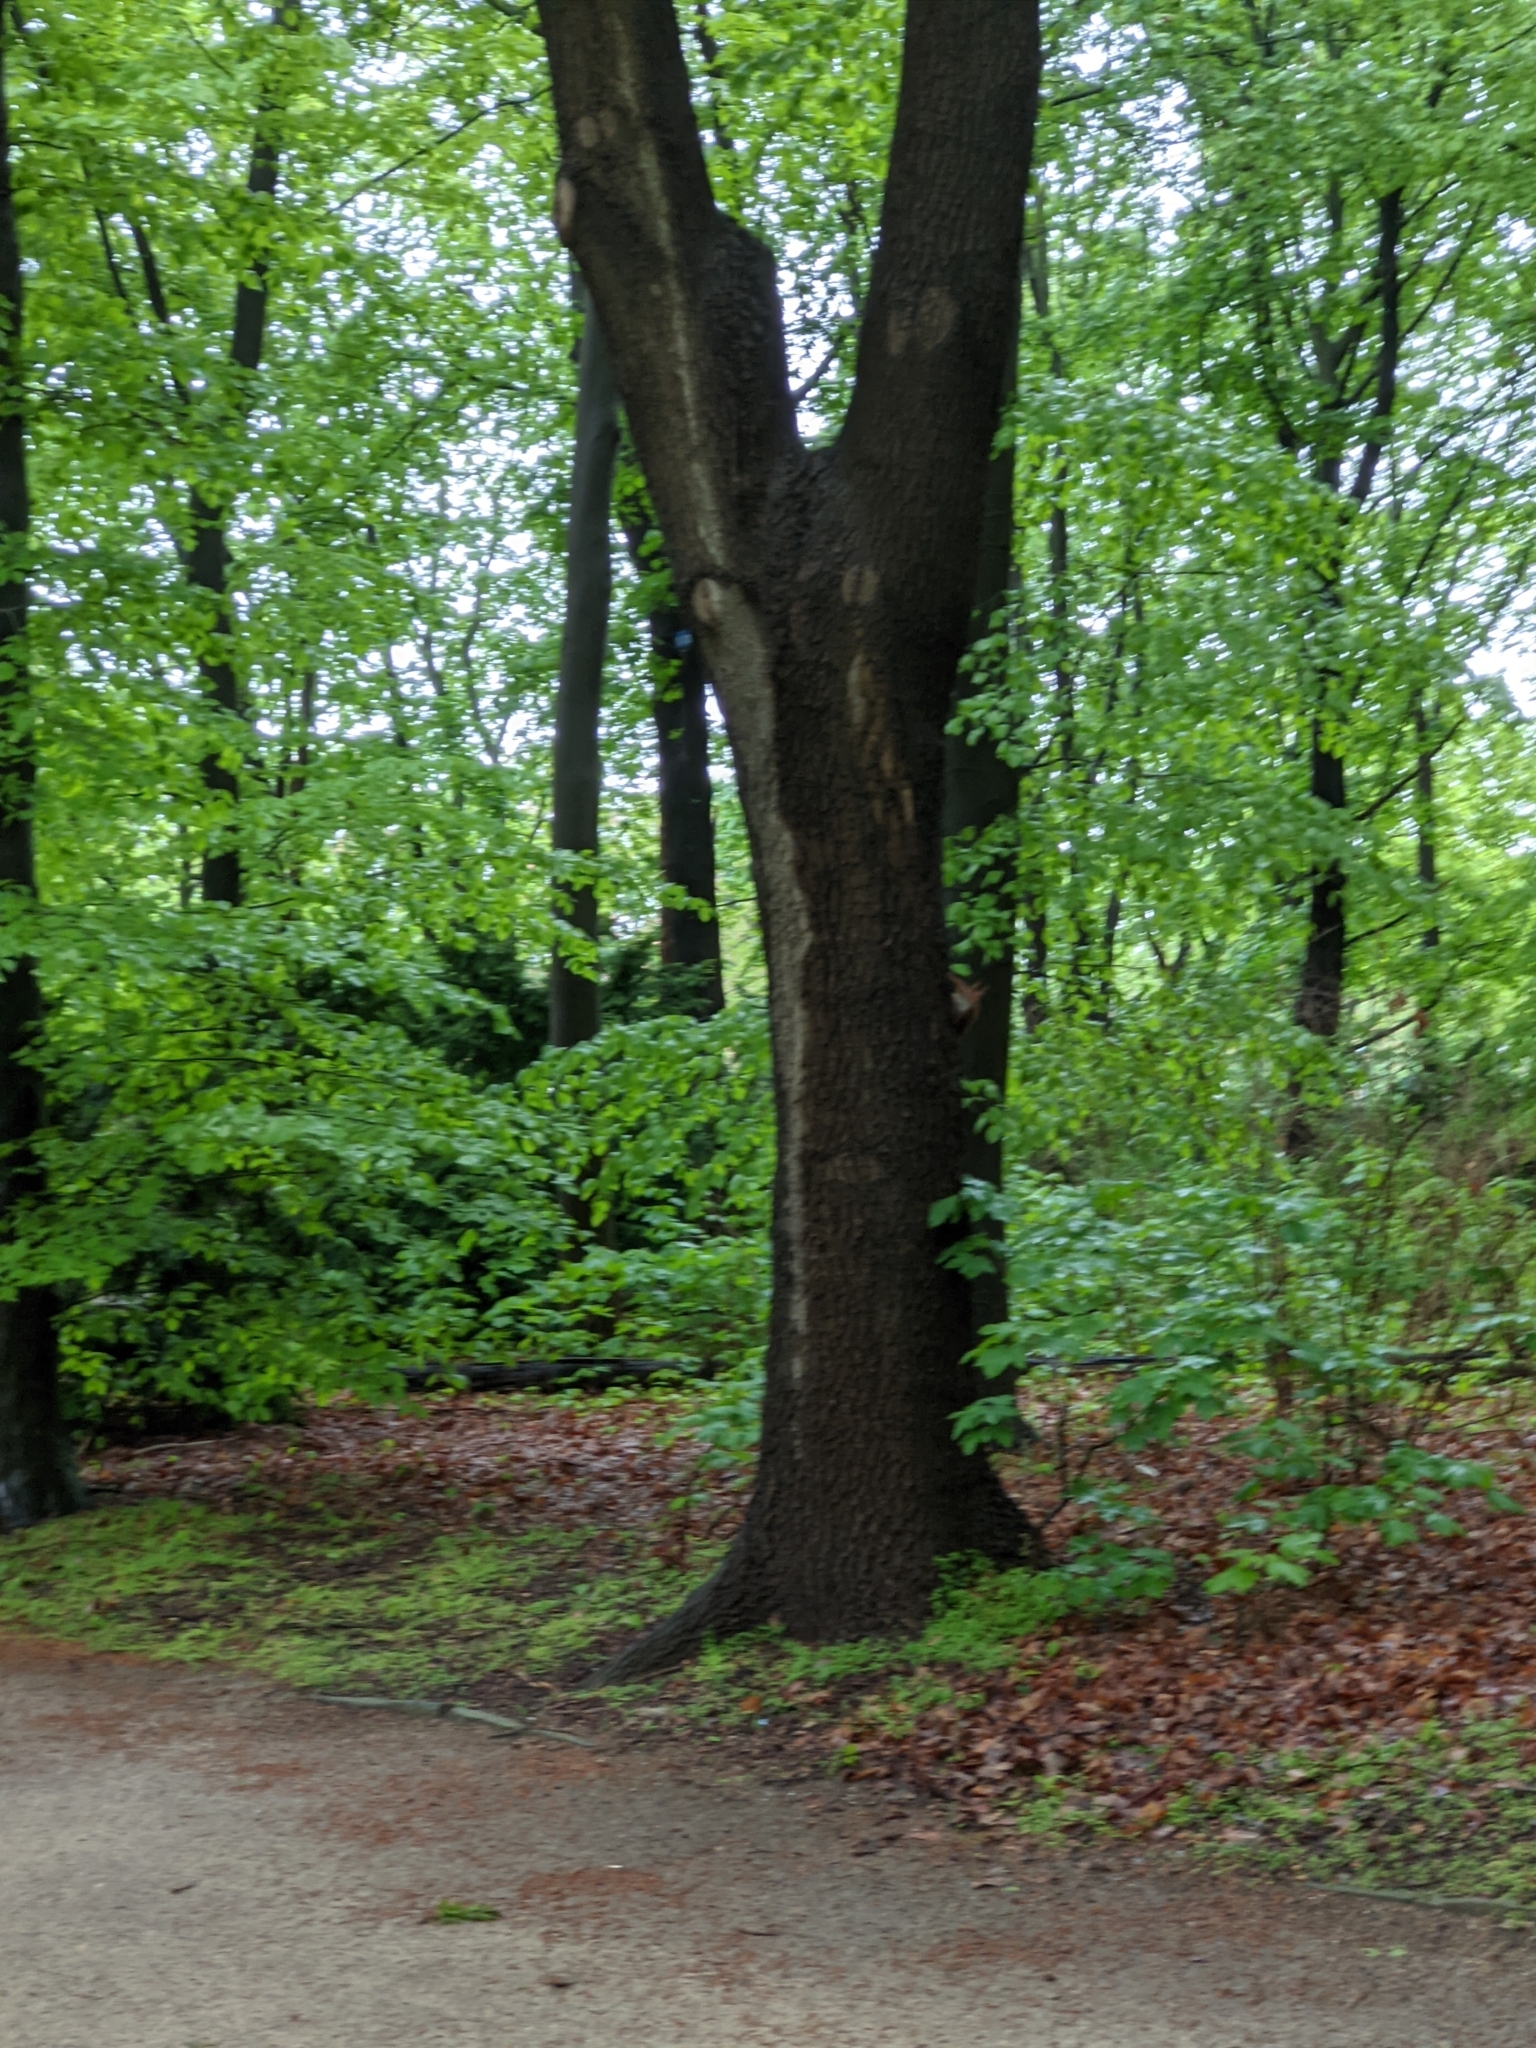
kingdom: Animalia
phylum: Chordata
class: Mammalia
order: Rodentia
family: Sciuridae
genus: Sciurus
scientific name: Sciurus vulgaris
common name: Eurasian red squirrel
